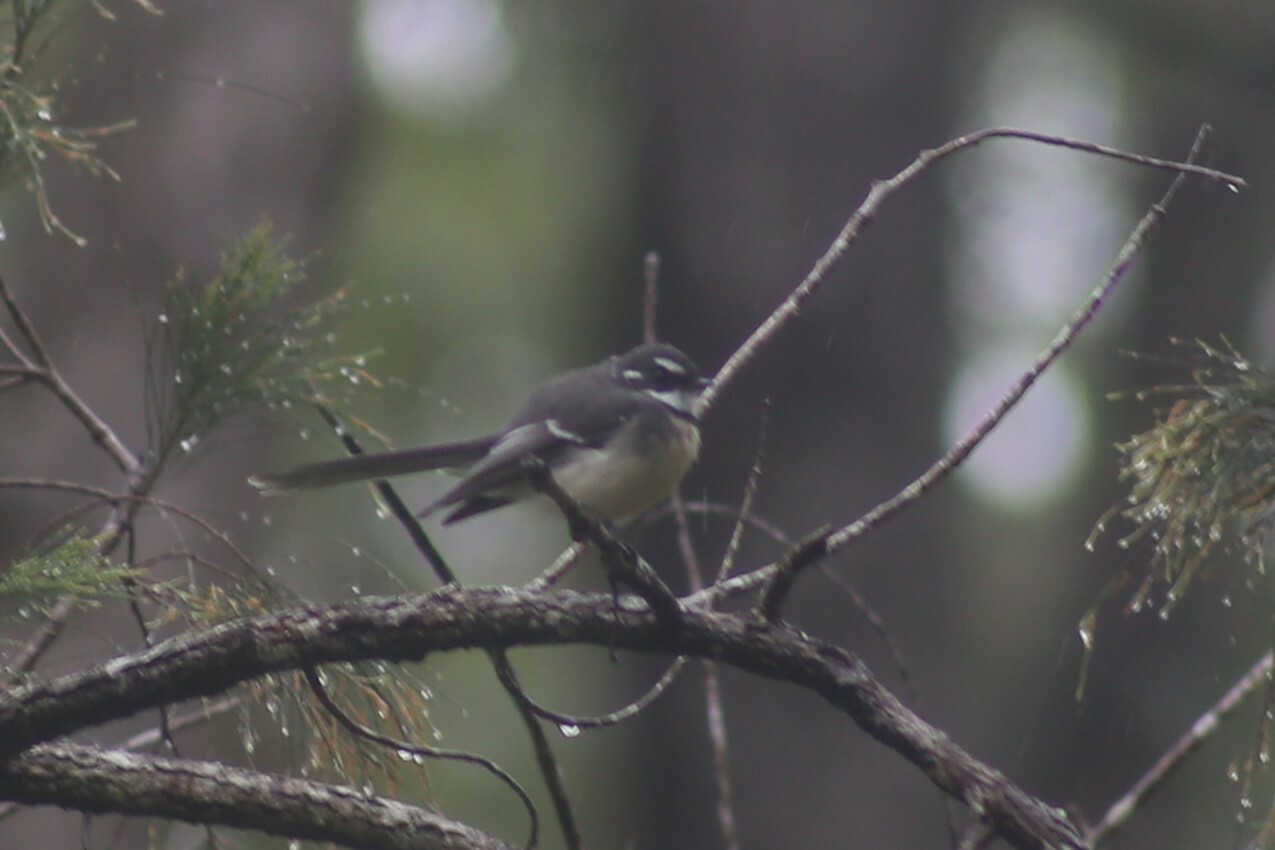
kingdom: Animalia
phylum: Chordata
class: Aves
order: Passeriformes
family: Rhipiduridae
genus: Rhipidura
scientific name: Rhipidura albiscapa
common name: Grey fantail
